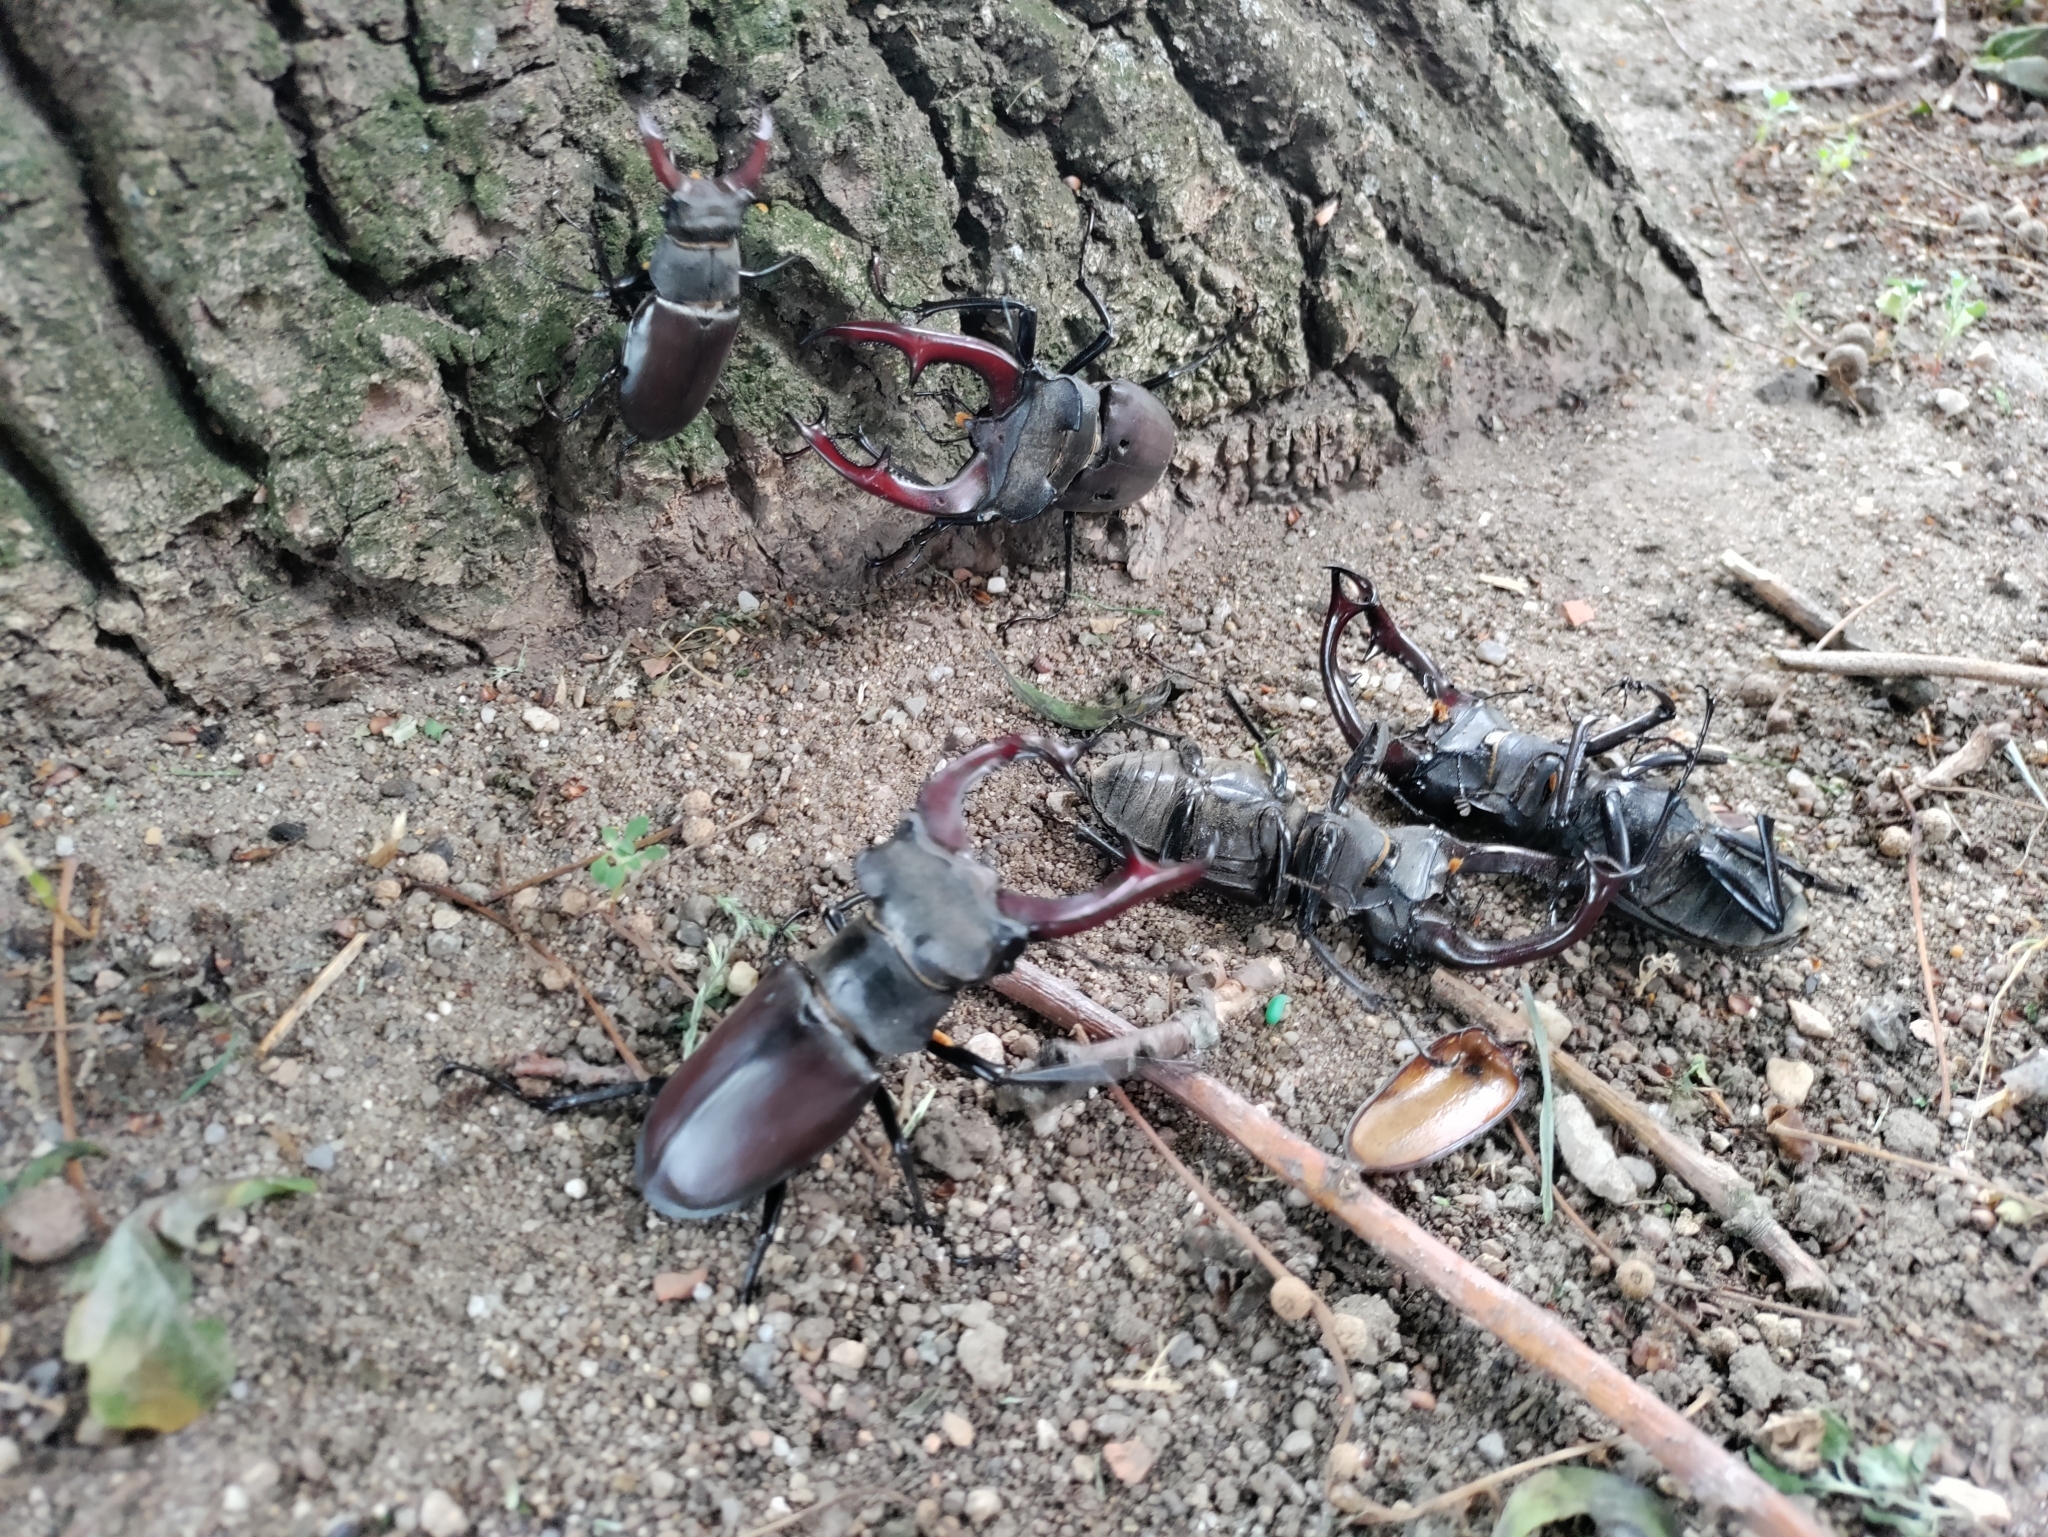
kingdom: Animalia
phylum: Arthropoda
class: Insecta
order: Coleoptera
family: Lucanidae
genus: Lucanus
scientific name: Lucanus cervus
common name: Stag beetle
